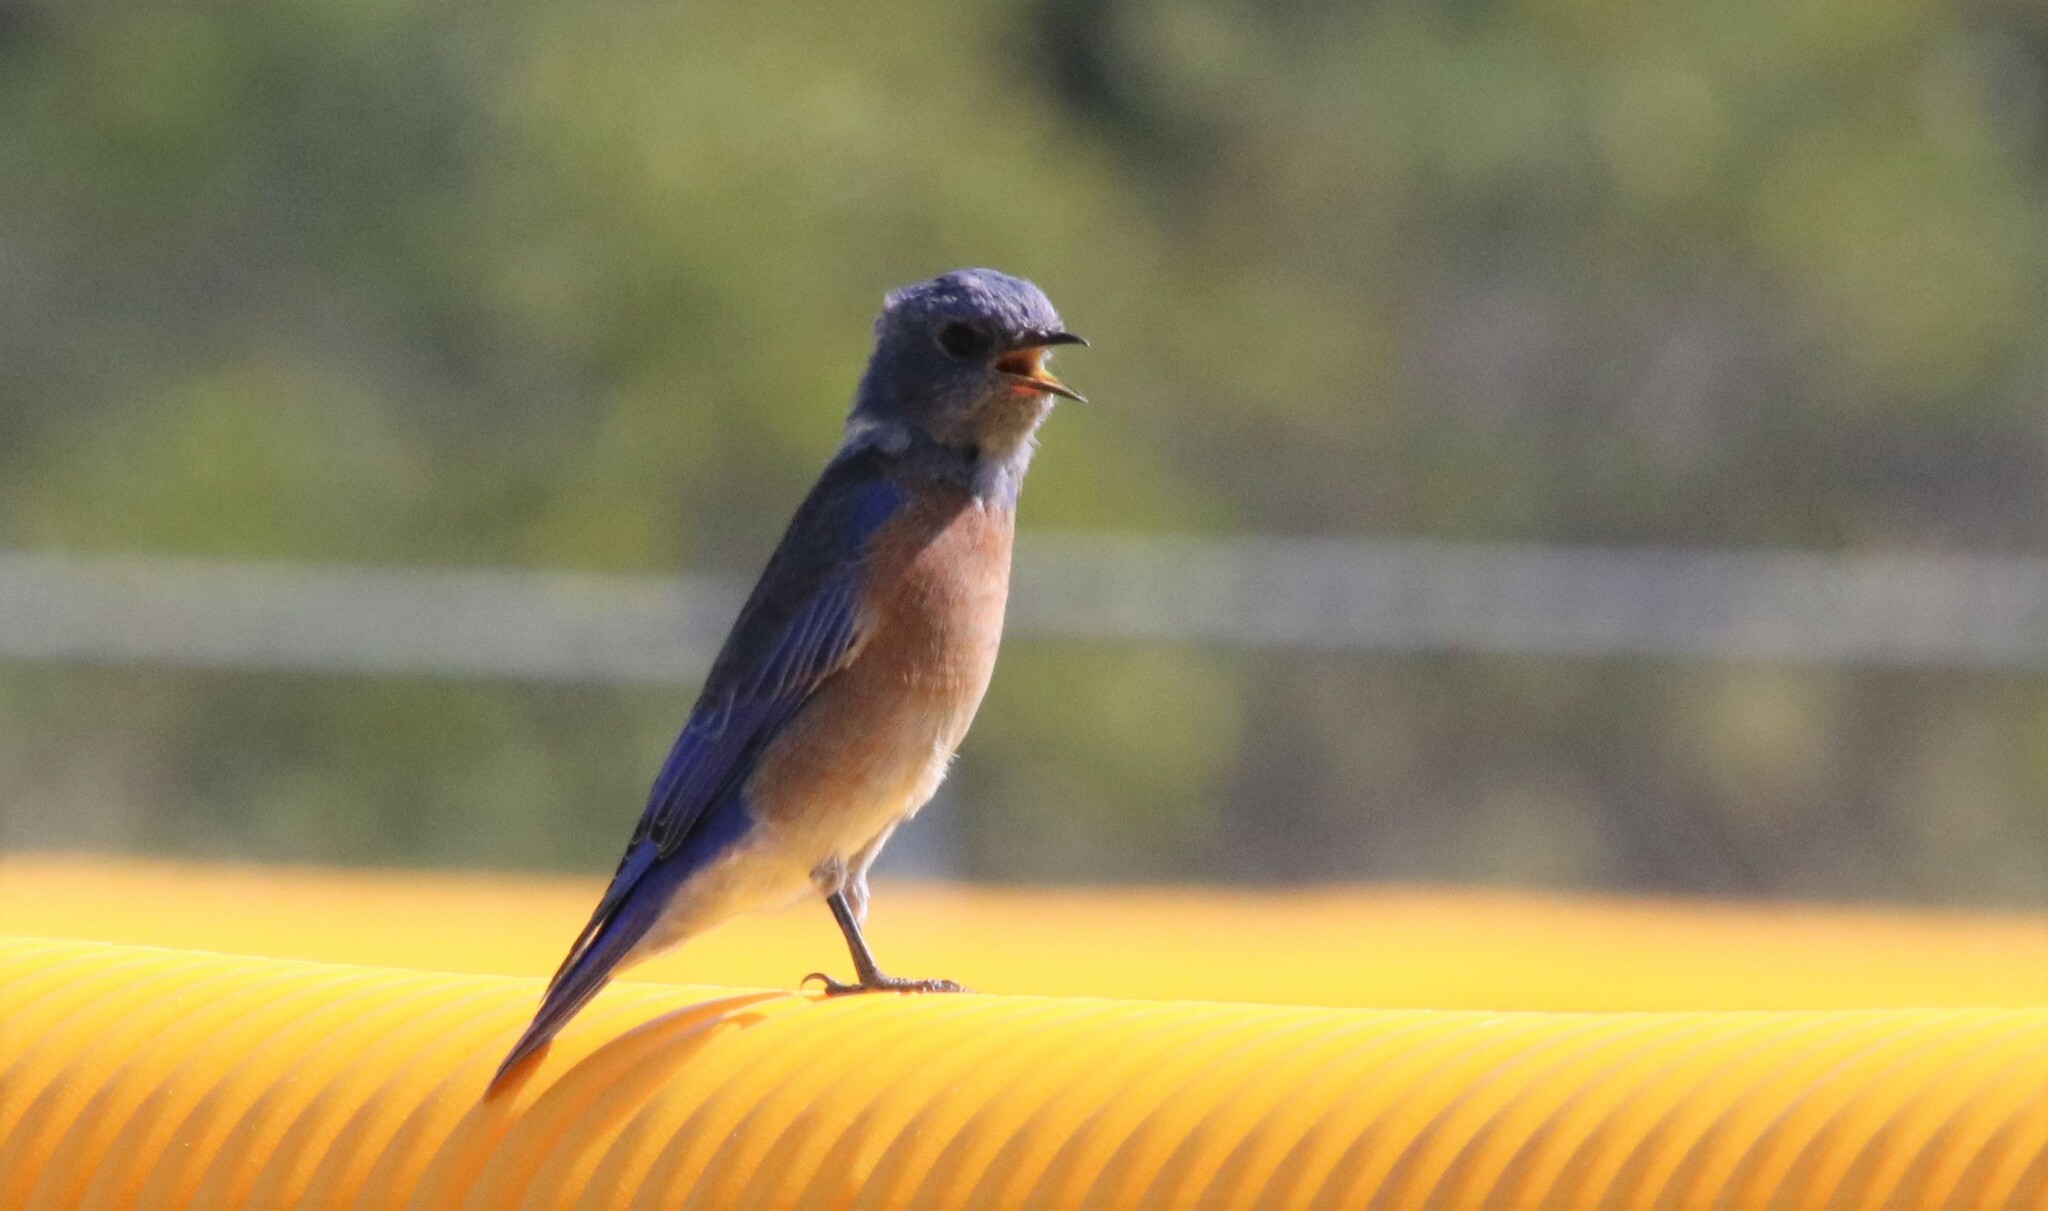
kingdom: Animalia
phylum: Chordata
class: Aves
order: Passeriformes
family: Turdidae
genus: Sialia
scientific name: Sialia mexicana
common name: Western bluebird
